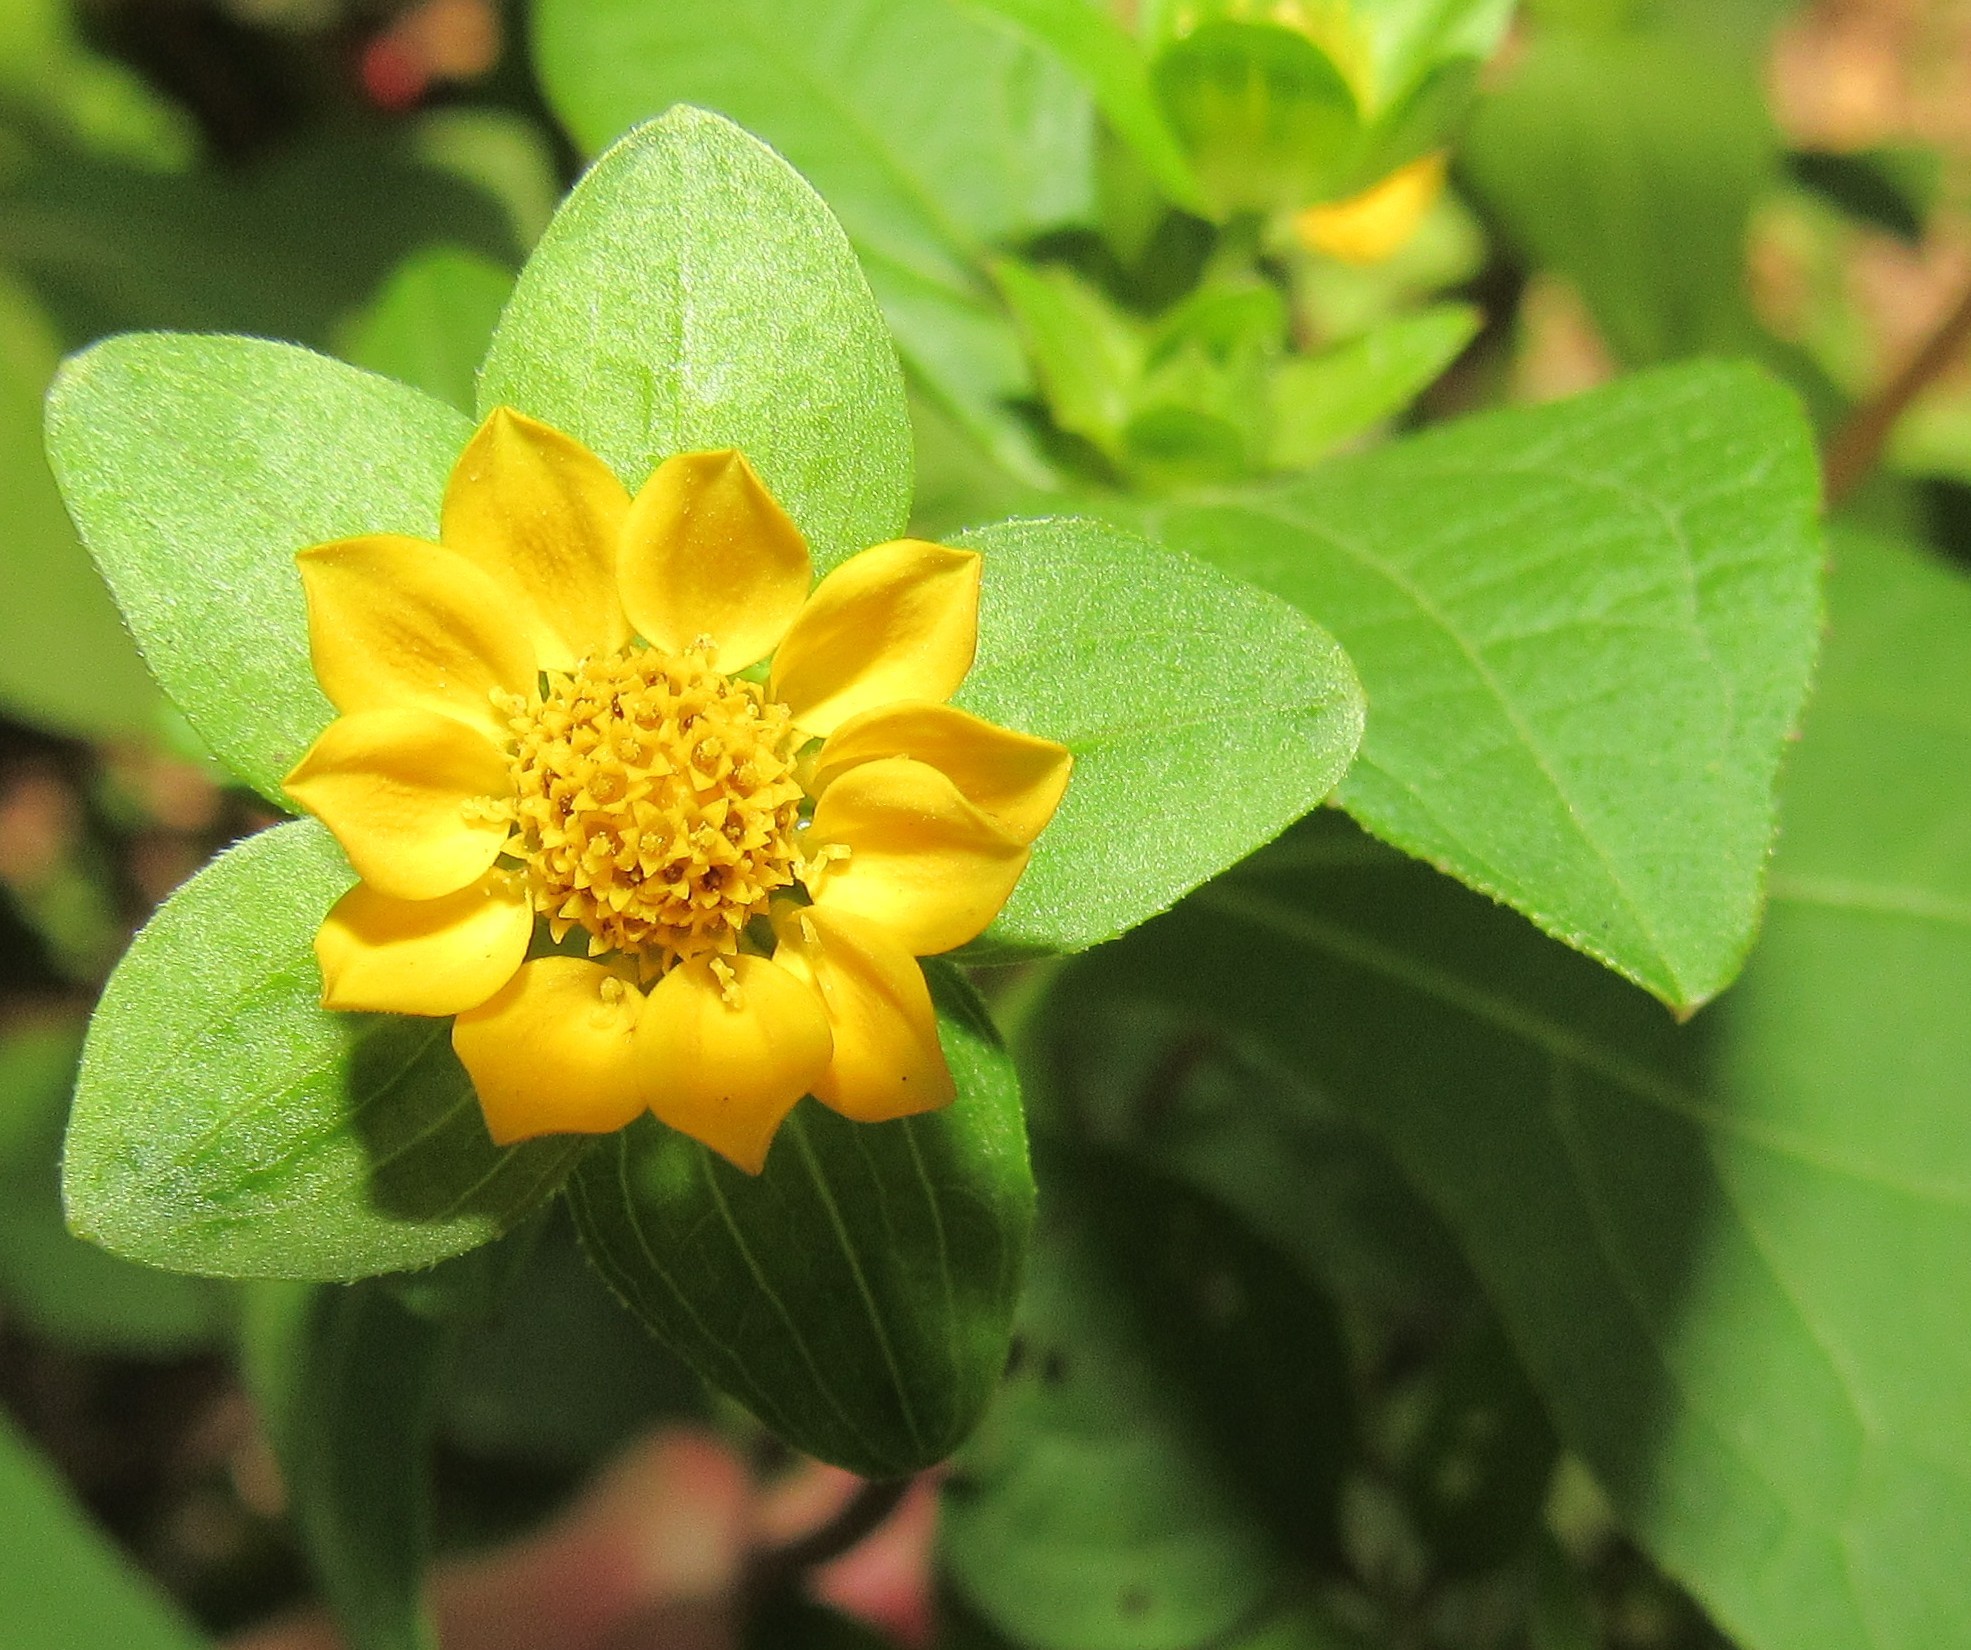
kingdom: Plantae
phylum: Tracheophyta
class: Magnoliopsida
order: Asterales
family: Asteraceae
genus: Smallanthus
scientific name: Smallanthus siegesbeckius
